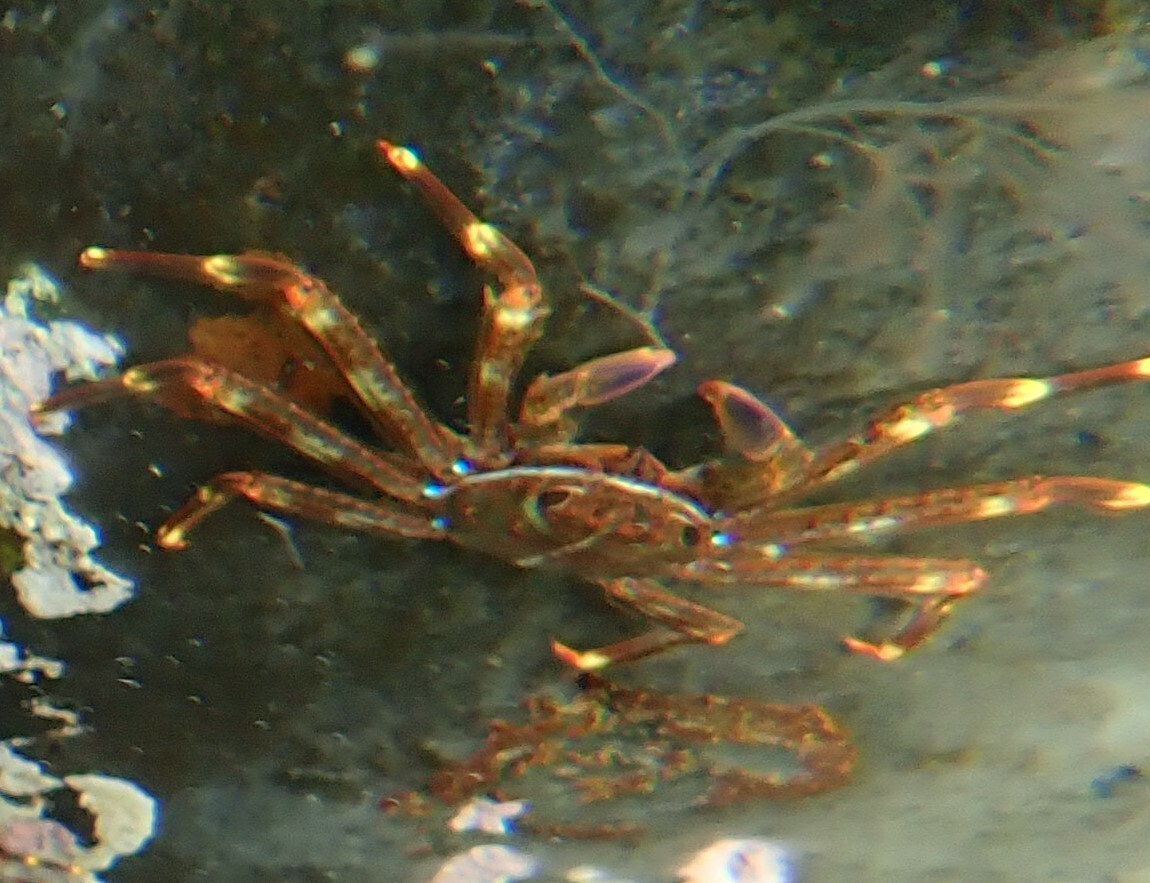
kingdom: Animalia
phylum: Arthropoda
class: Malacostraca
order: Decapoda
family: Percnidae
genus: Percnon
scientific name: Percnon gibbesi
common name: Nimble spray crab
